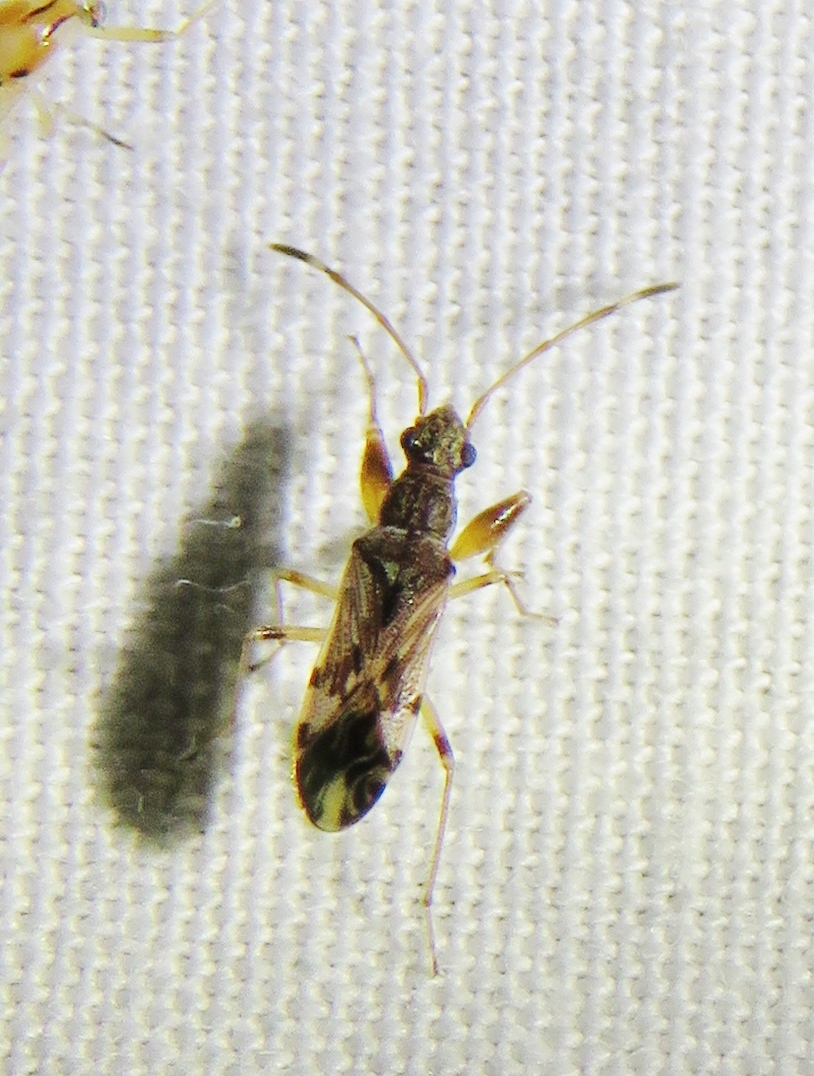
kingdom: Animalia
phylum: Arthropoda
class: Insecta
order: Hemiptera
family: Rhyparochromidae
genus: Neopamera
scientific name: Neopamera albocincta
